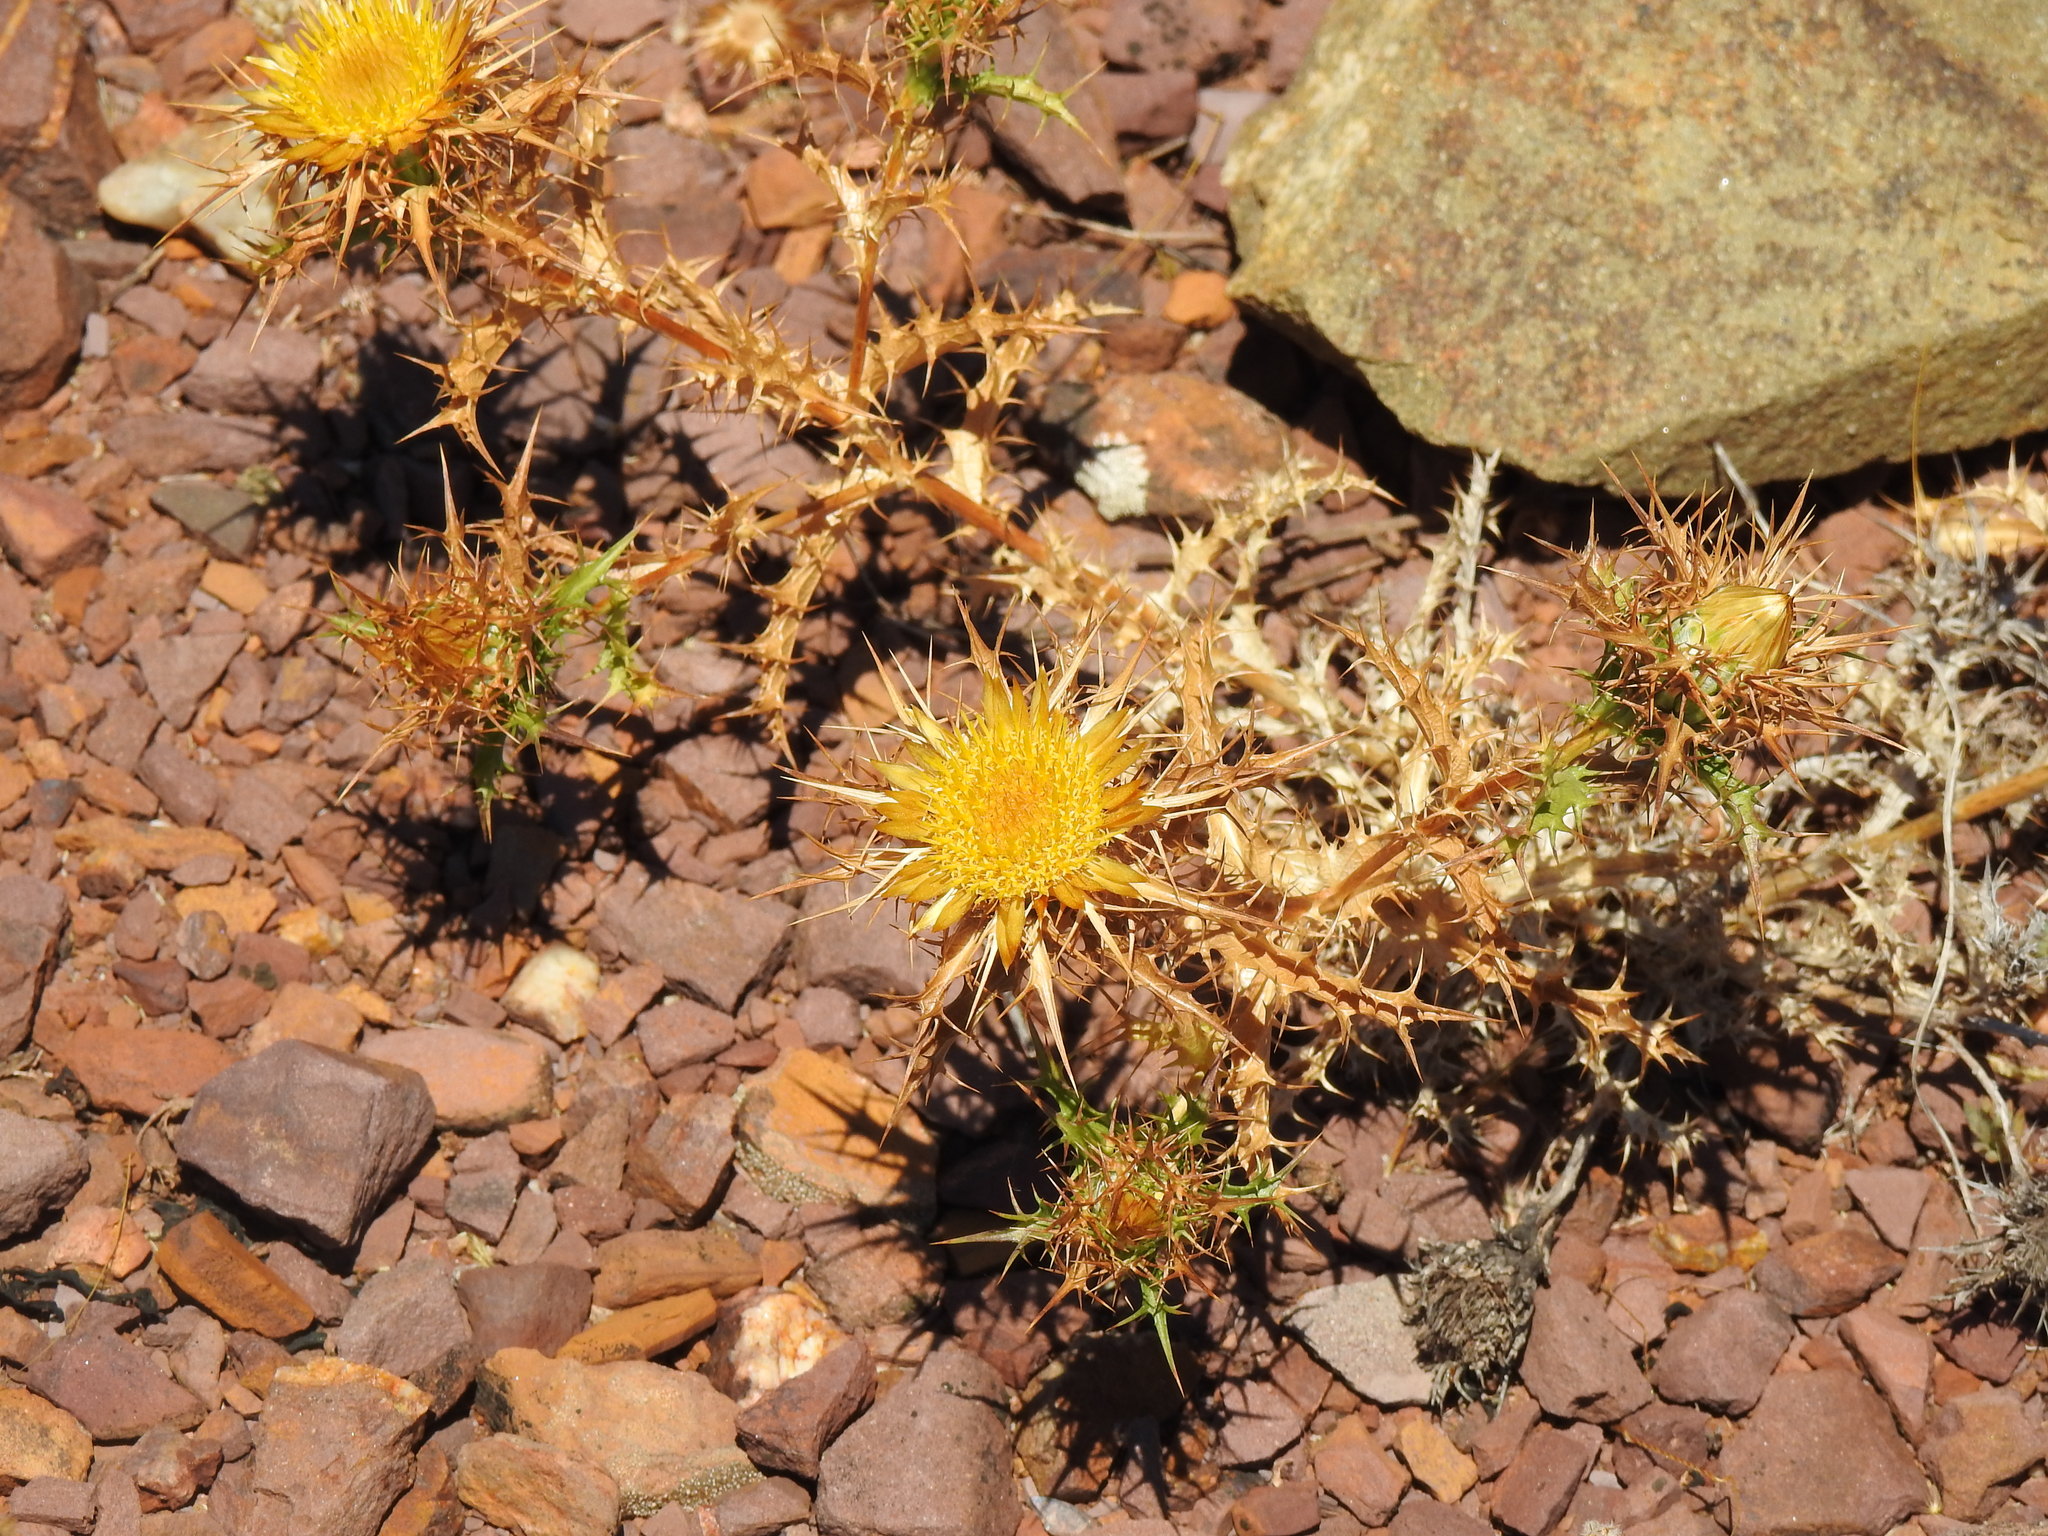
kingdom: Plantae
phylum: Tracheophyta
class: Magnoliopsida
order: Asterales
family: Asteraceae
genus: Carlina
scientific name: Carlina hispanica
